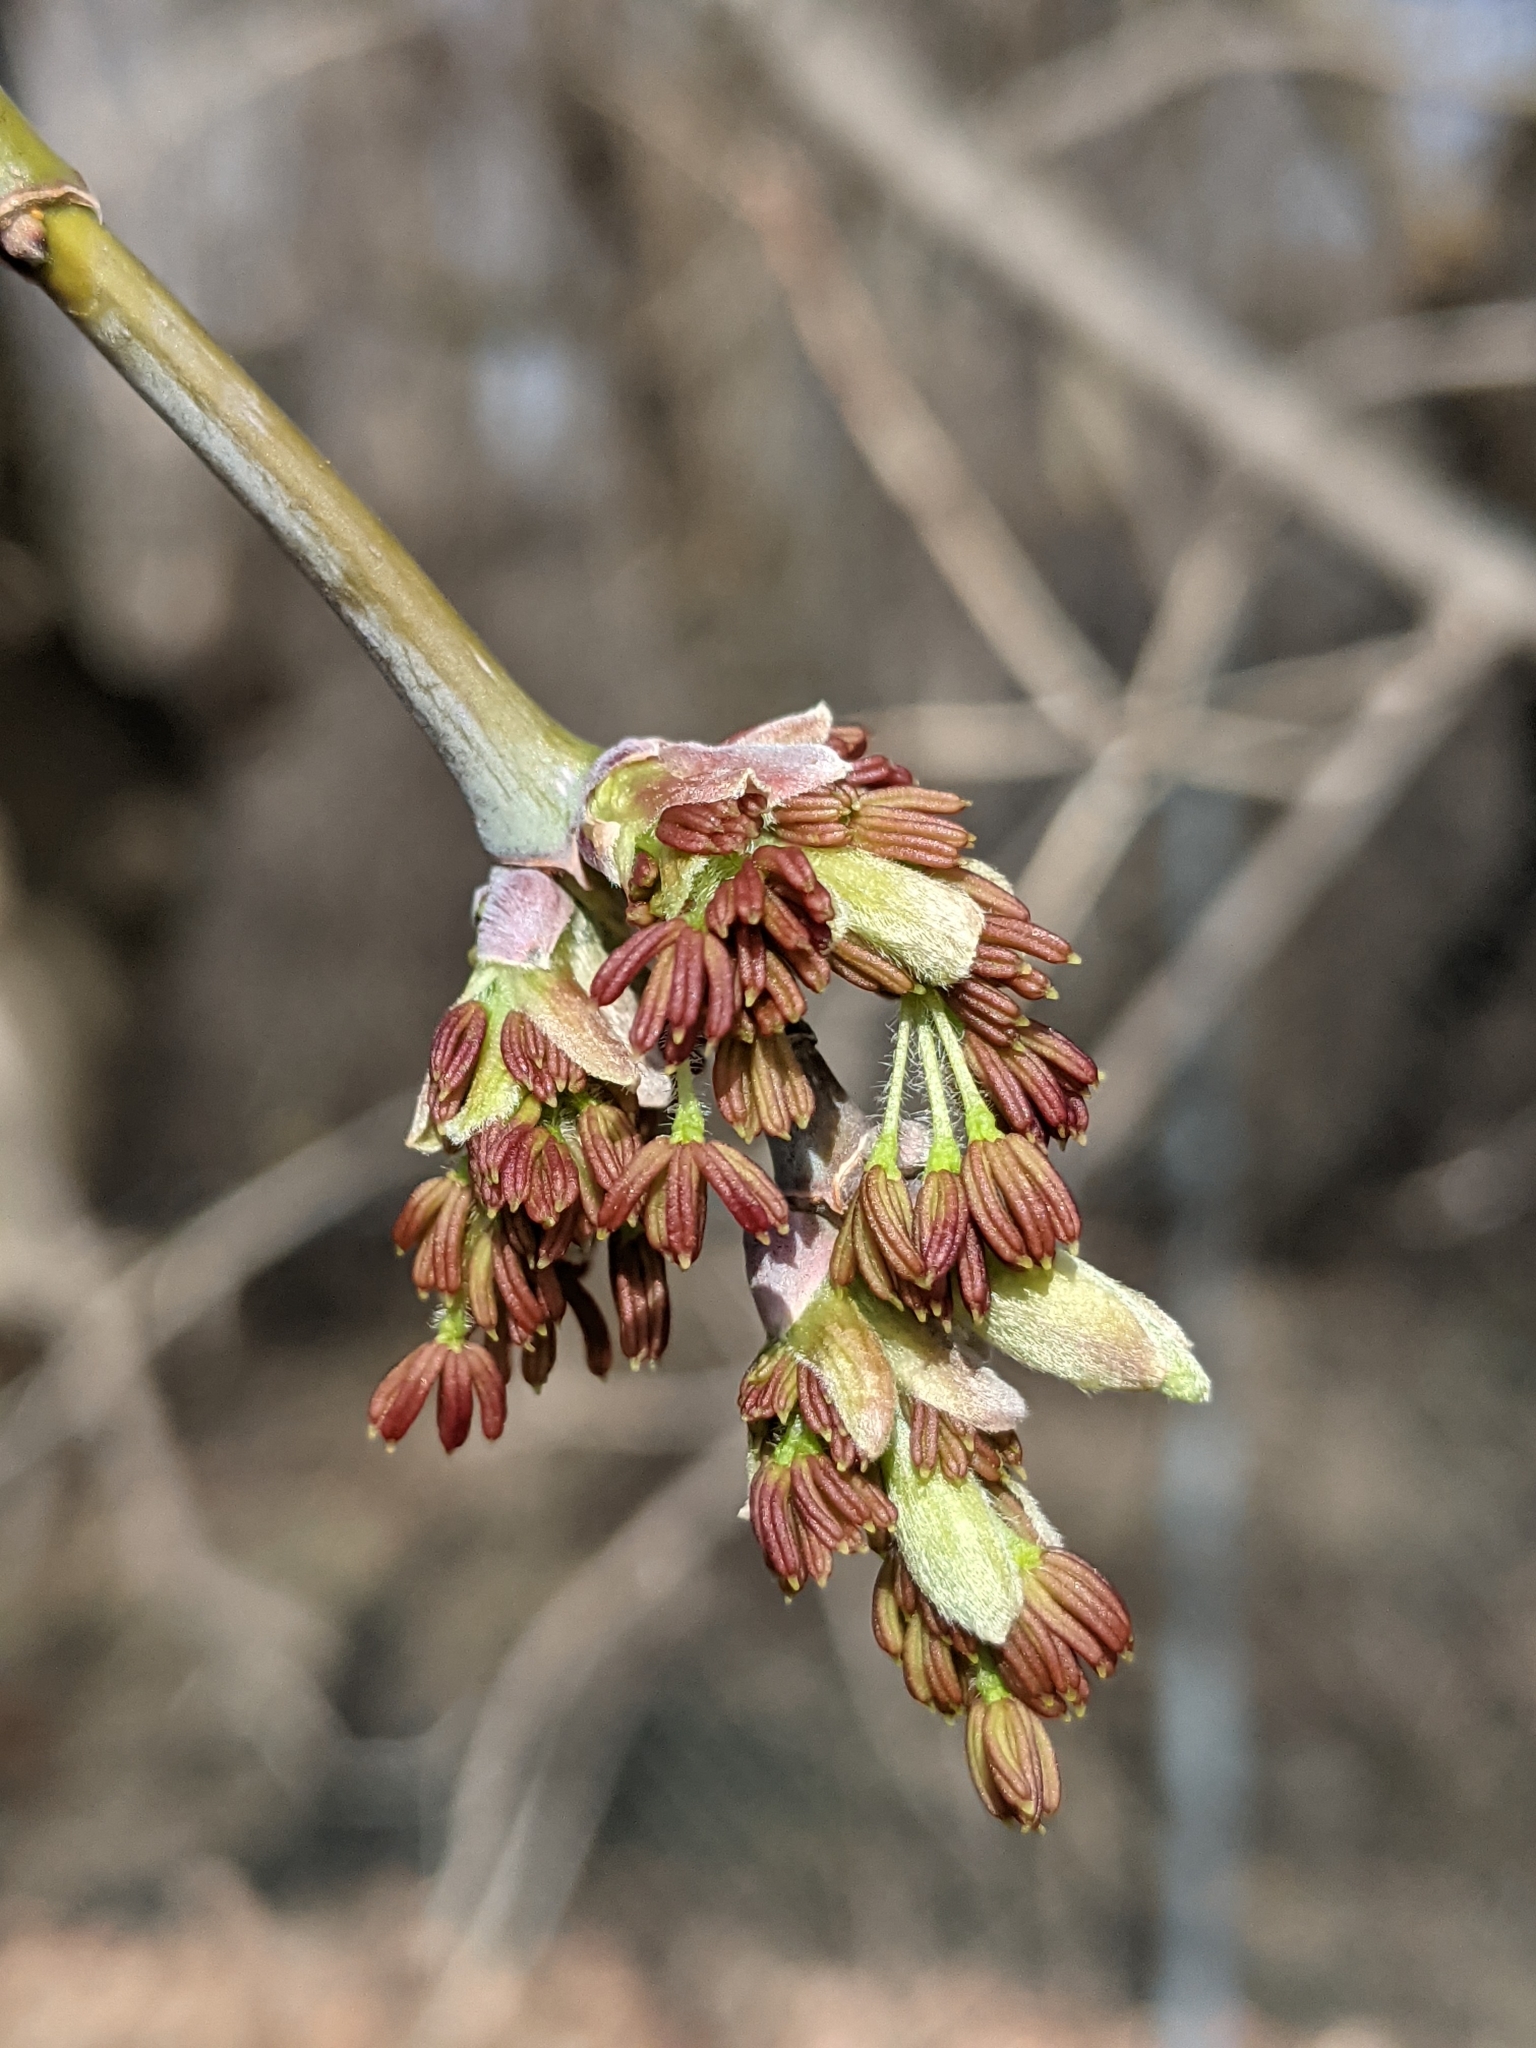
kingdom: Plantae
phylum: Tracheophyta
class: Magnoliopsida
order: Sapindales
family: Sapindaceae
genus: Acer
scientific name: Acer negundo
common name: Ashleaf maple
